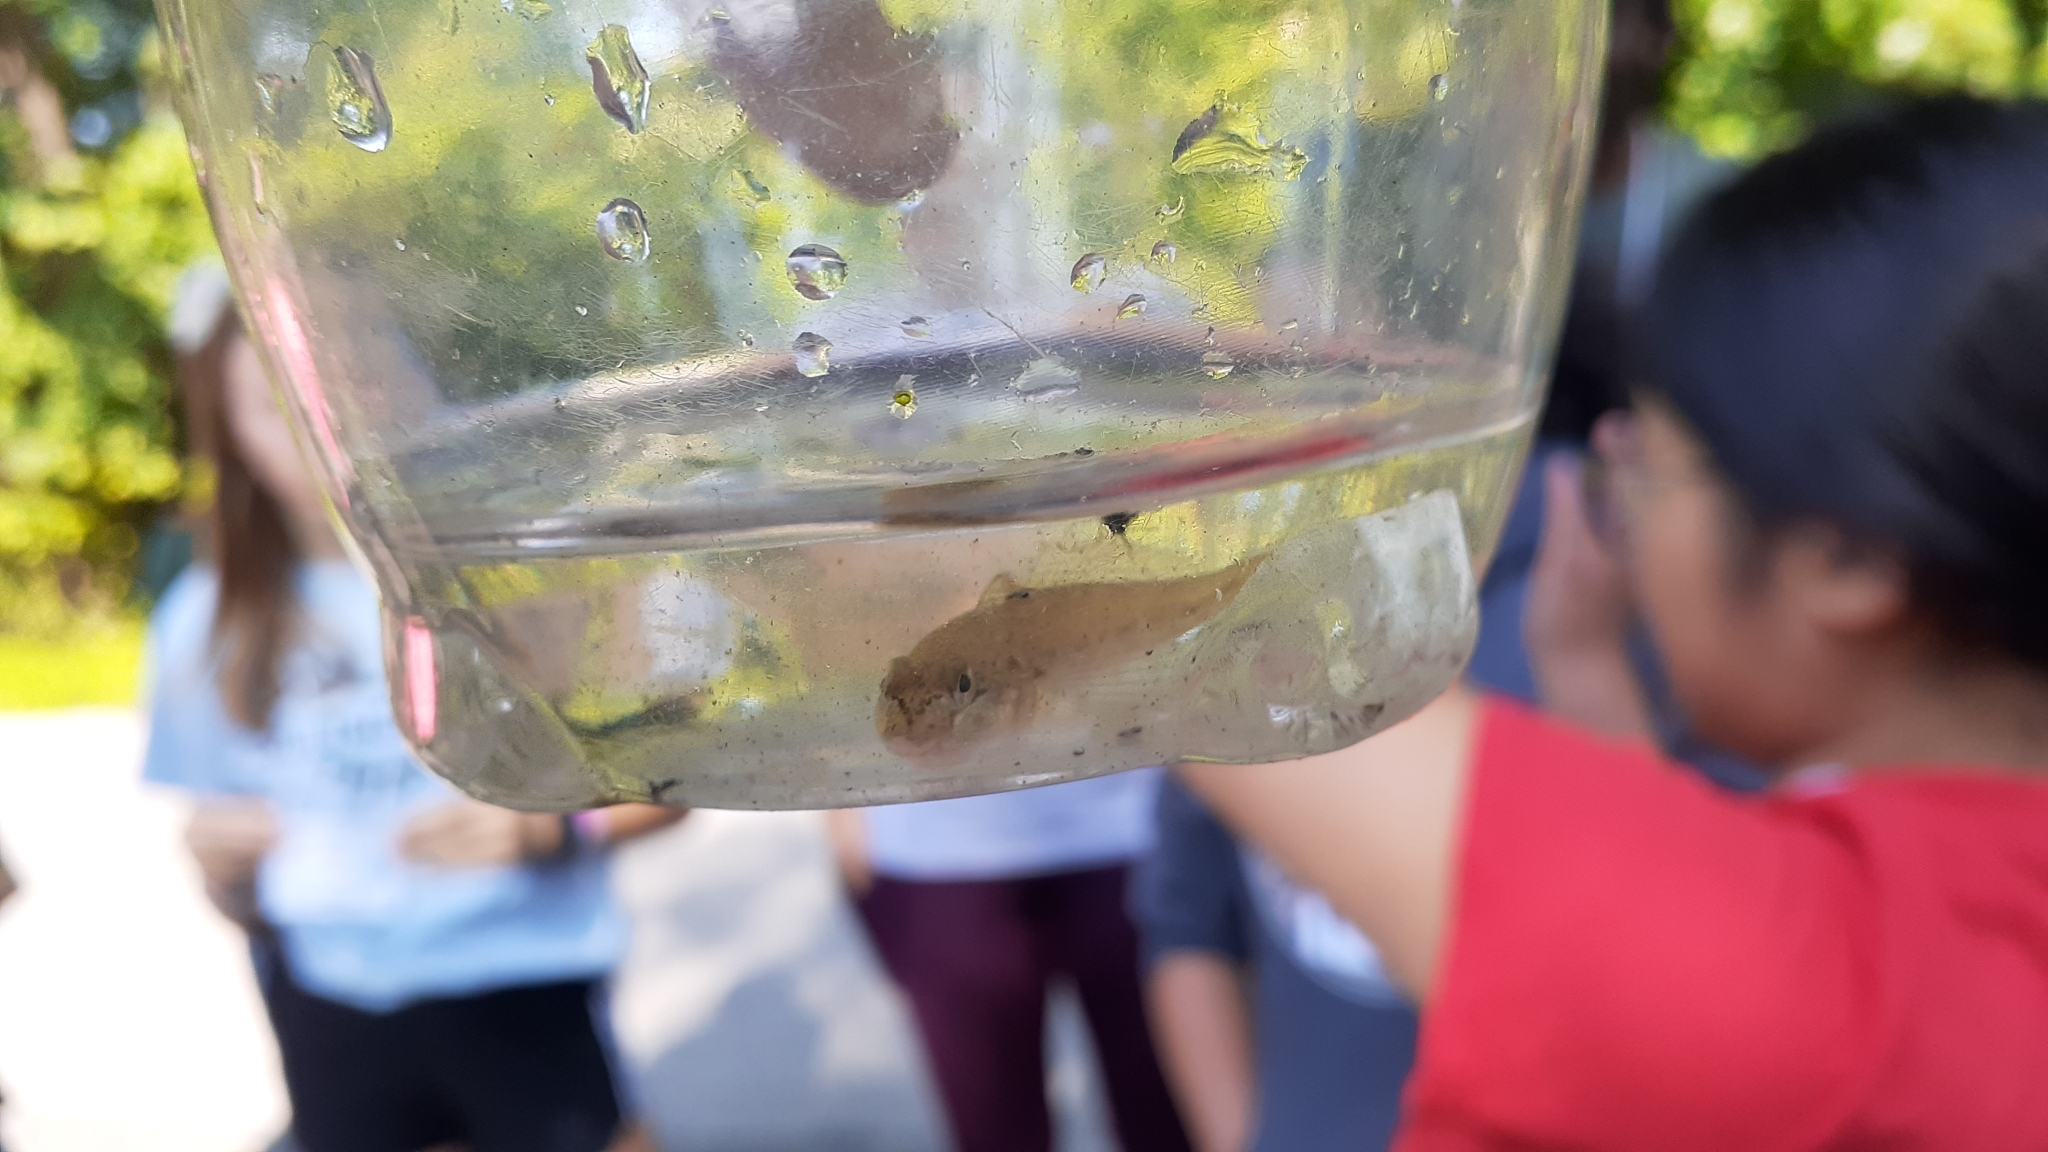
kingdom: Animalia
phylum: Chordata
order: Perciformes
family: Gobiidae
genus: Neogobius
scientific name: Neogobius melanostomus
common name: Round goby
